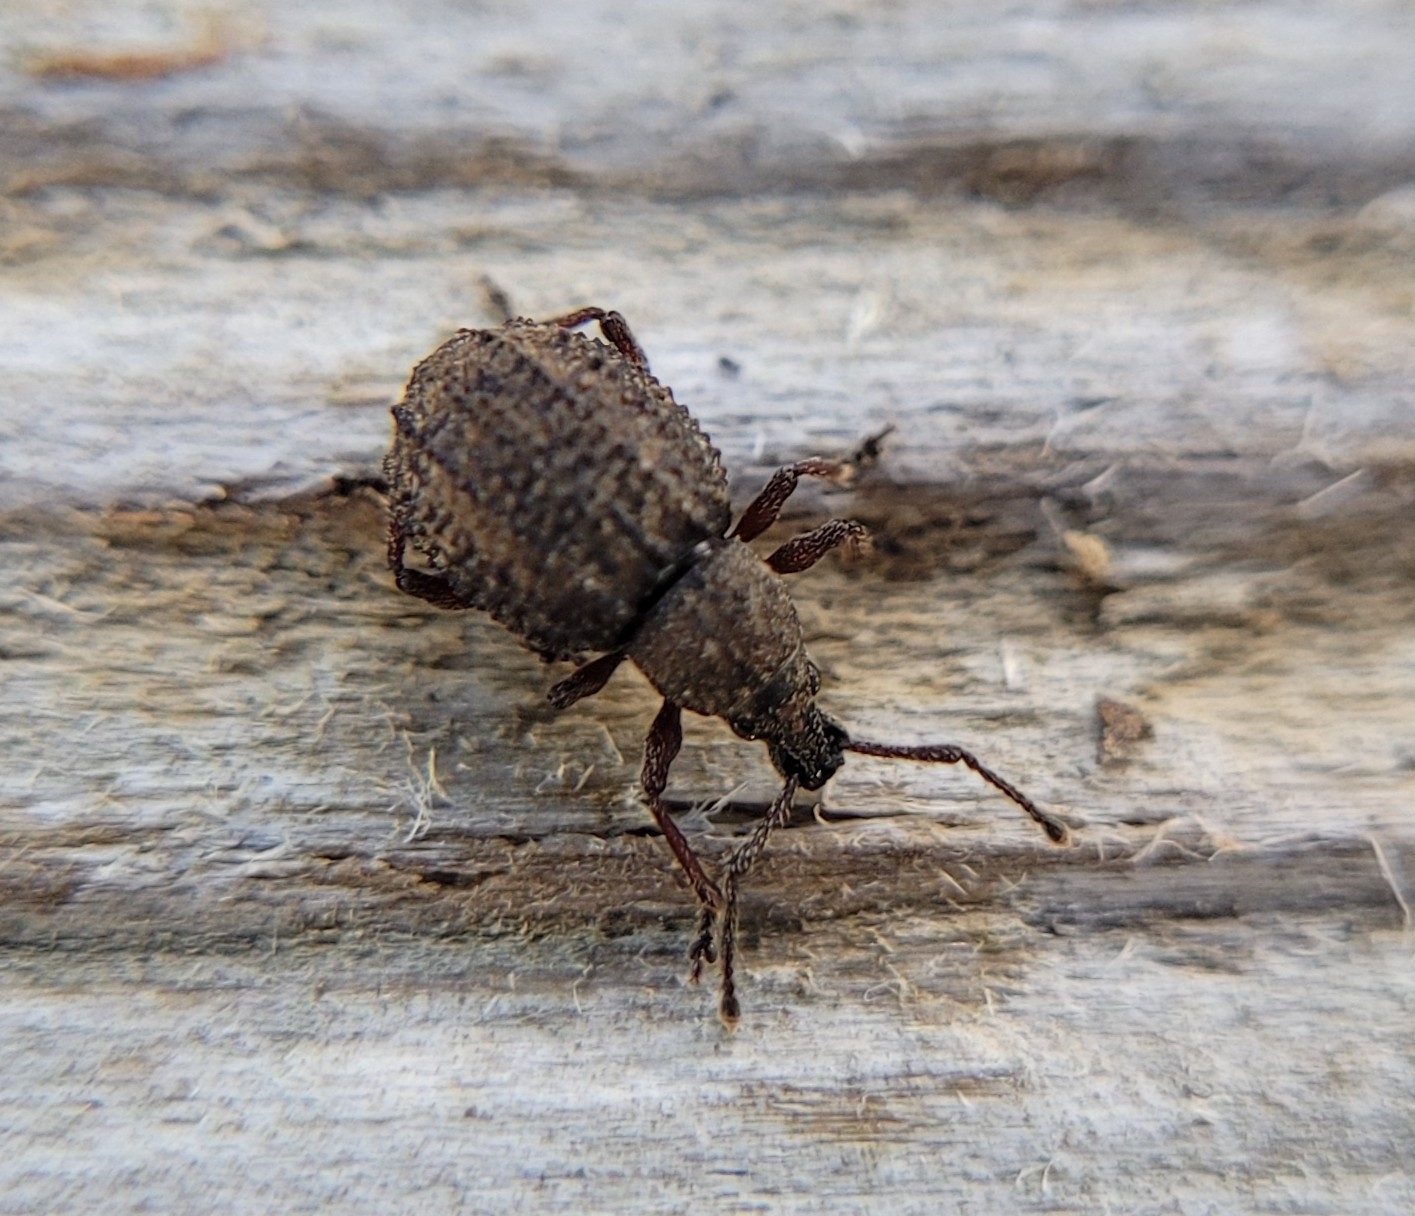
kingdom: Animalia
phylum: Arthropoda
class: Insecta
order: Coleoptera
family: Curculionidae
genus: Otiorhynchus
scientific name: Otiorhynchus porcatus
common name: Weevil
